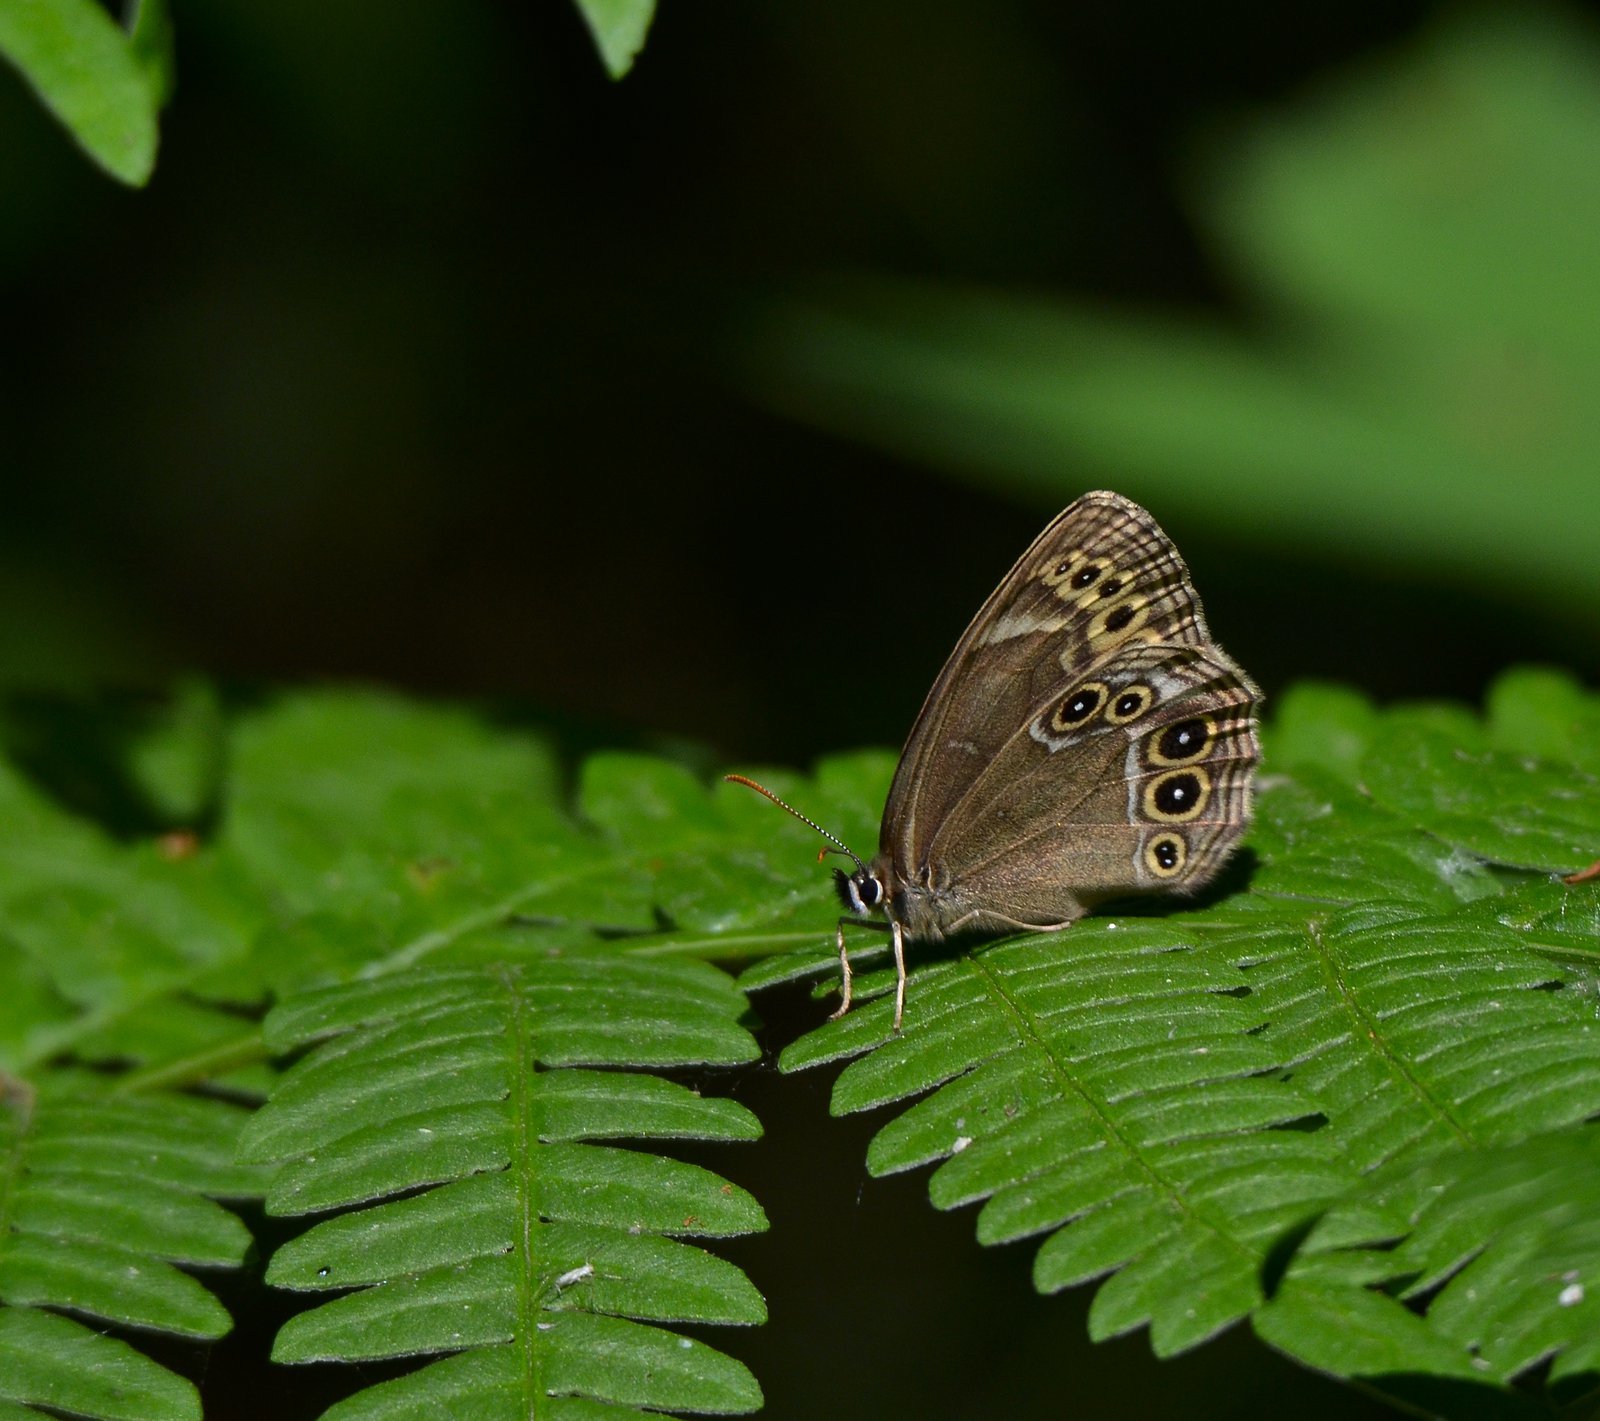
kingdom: Animalia
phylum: Arthropoda
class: Insecta
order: Lepidoptera
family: Nymphalidae
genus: Pararge
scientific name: Pararge Lopinga achine
